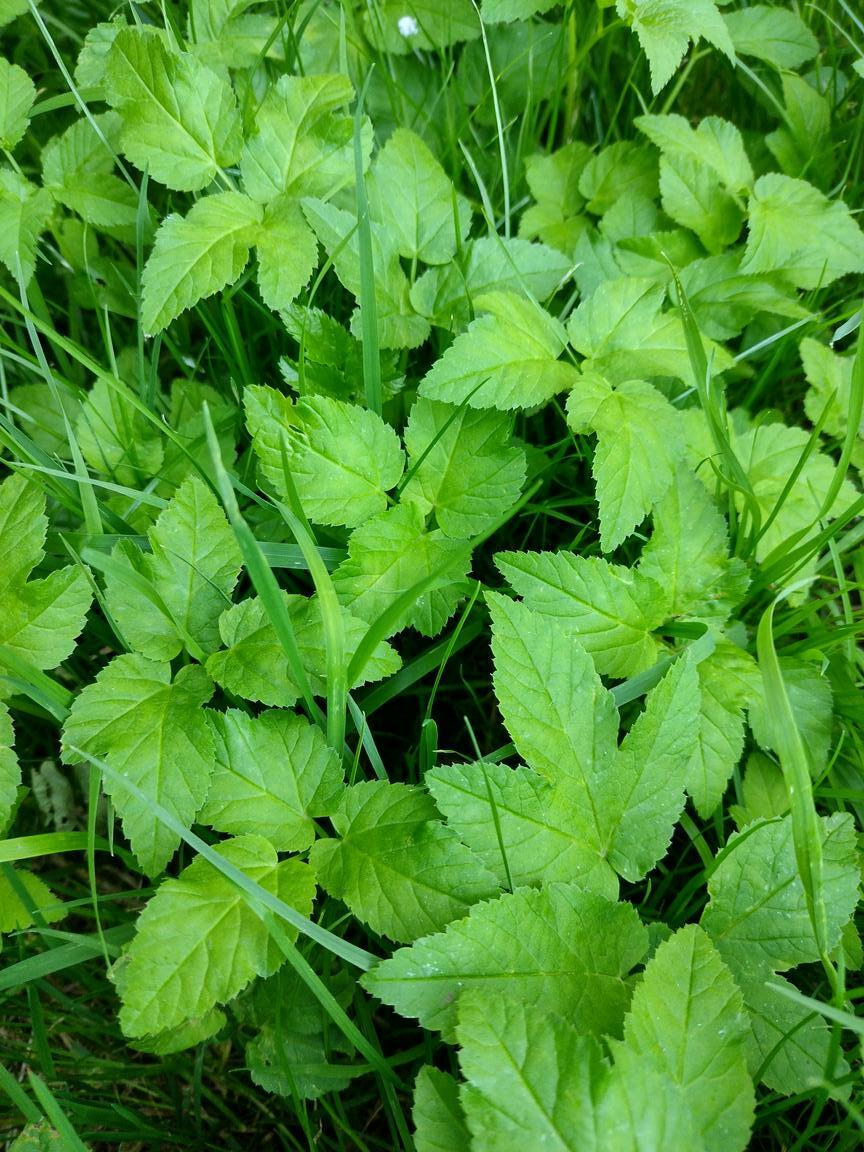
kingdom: Plantae
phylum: Tracheophyta
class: Magnoliopsida
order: Apiales
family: Apiaceae
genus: Aegopodium
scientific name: Aegopodium podagraria
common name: Ground-elder
